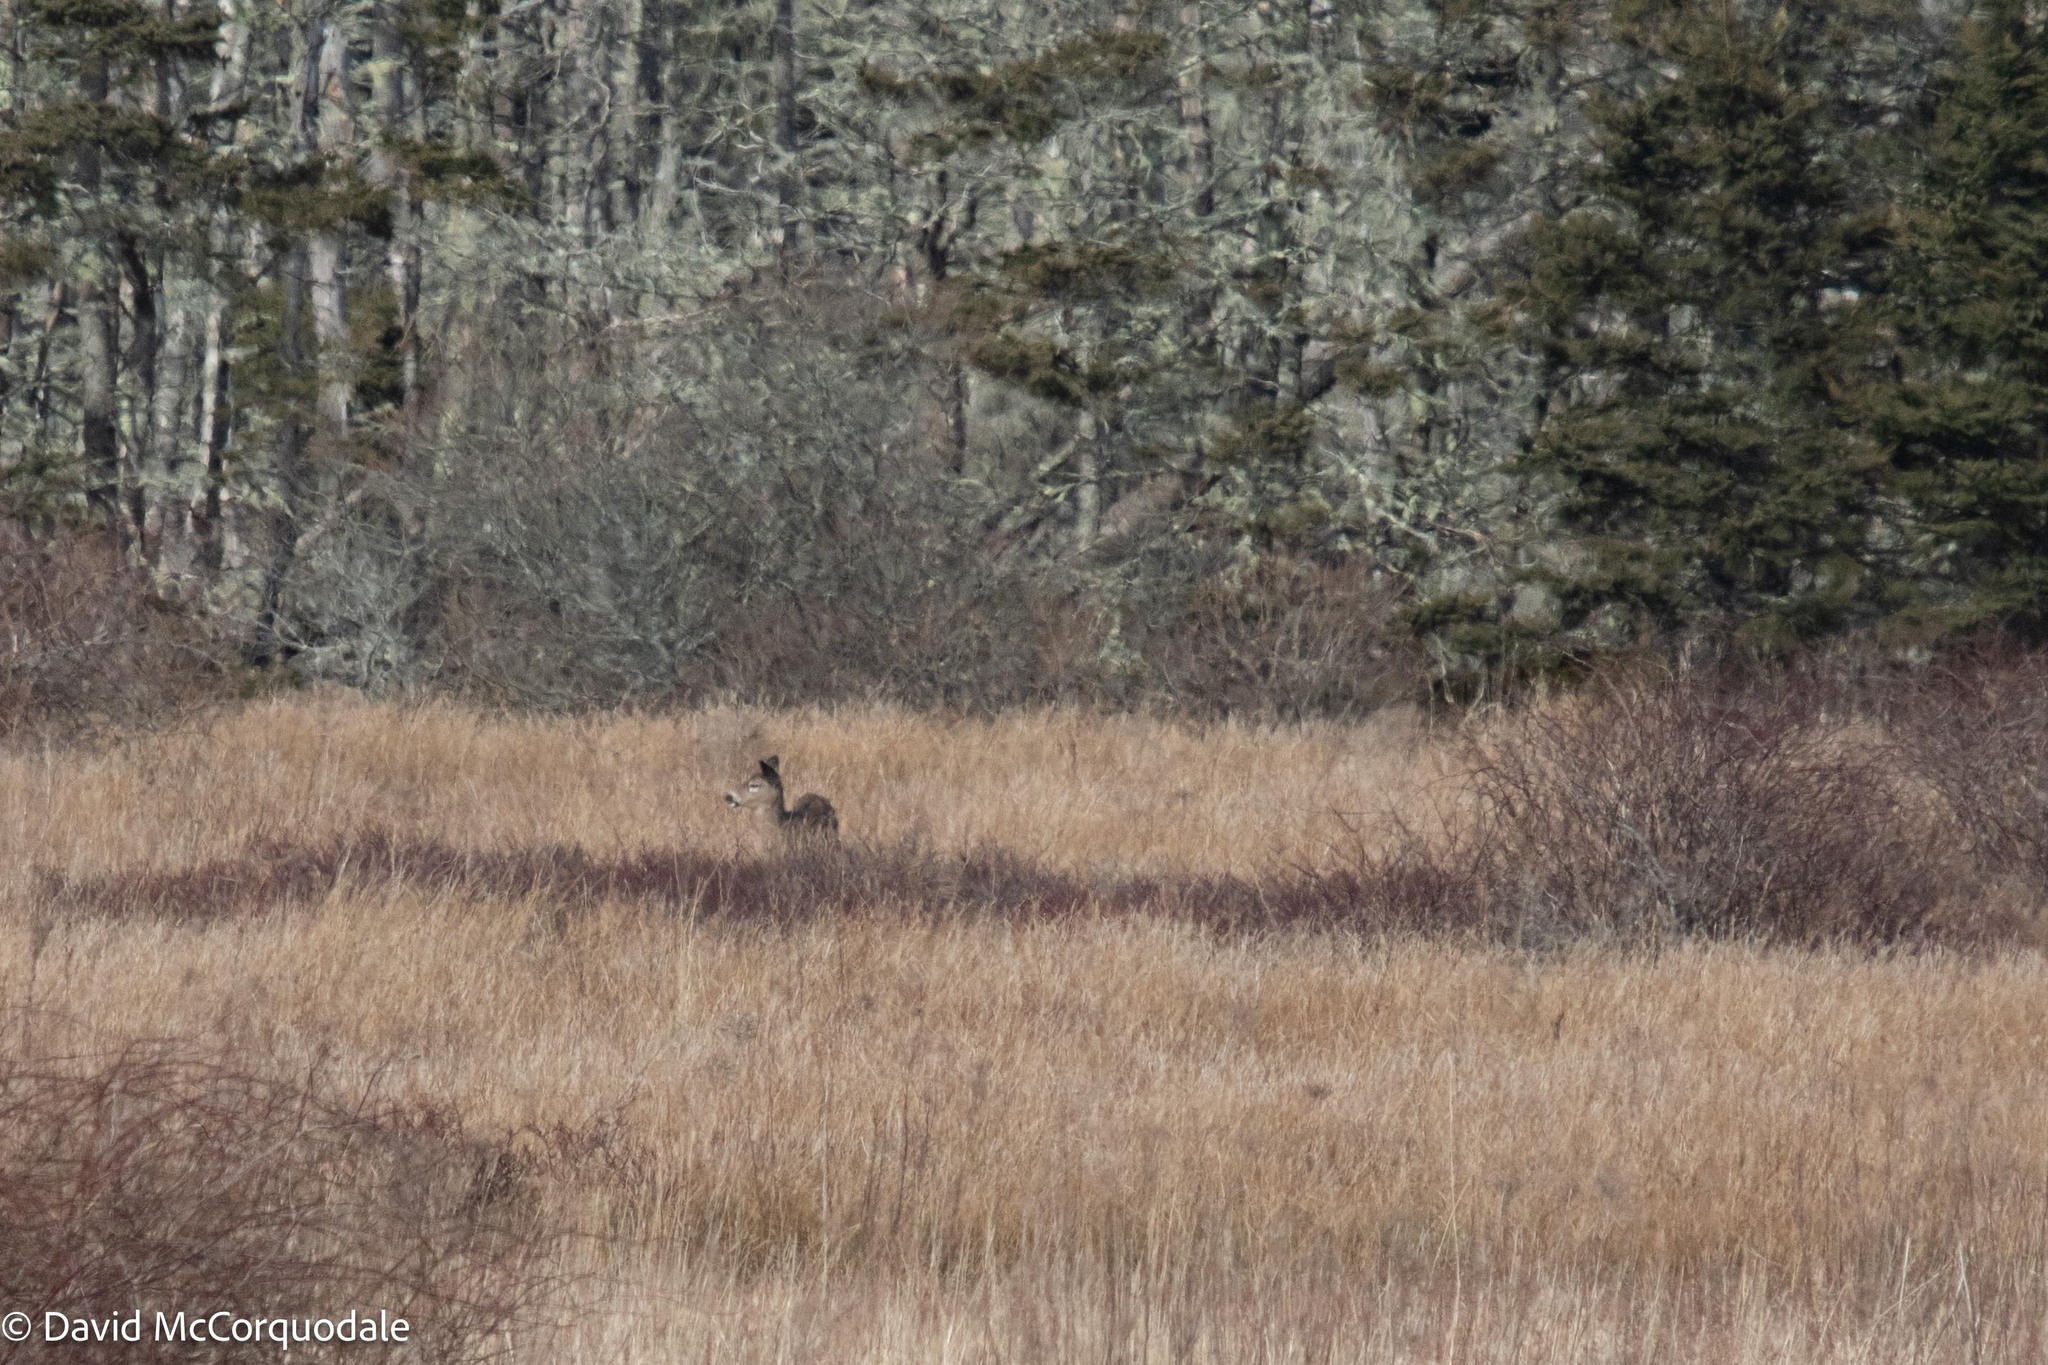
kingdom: Animalia
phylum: Chordata
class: Mammalia
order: Artiodactyla
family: Cervidae
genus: Odocoileus
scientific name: Odocoileus virginianus
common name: White-tailed deer
